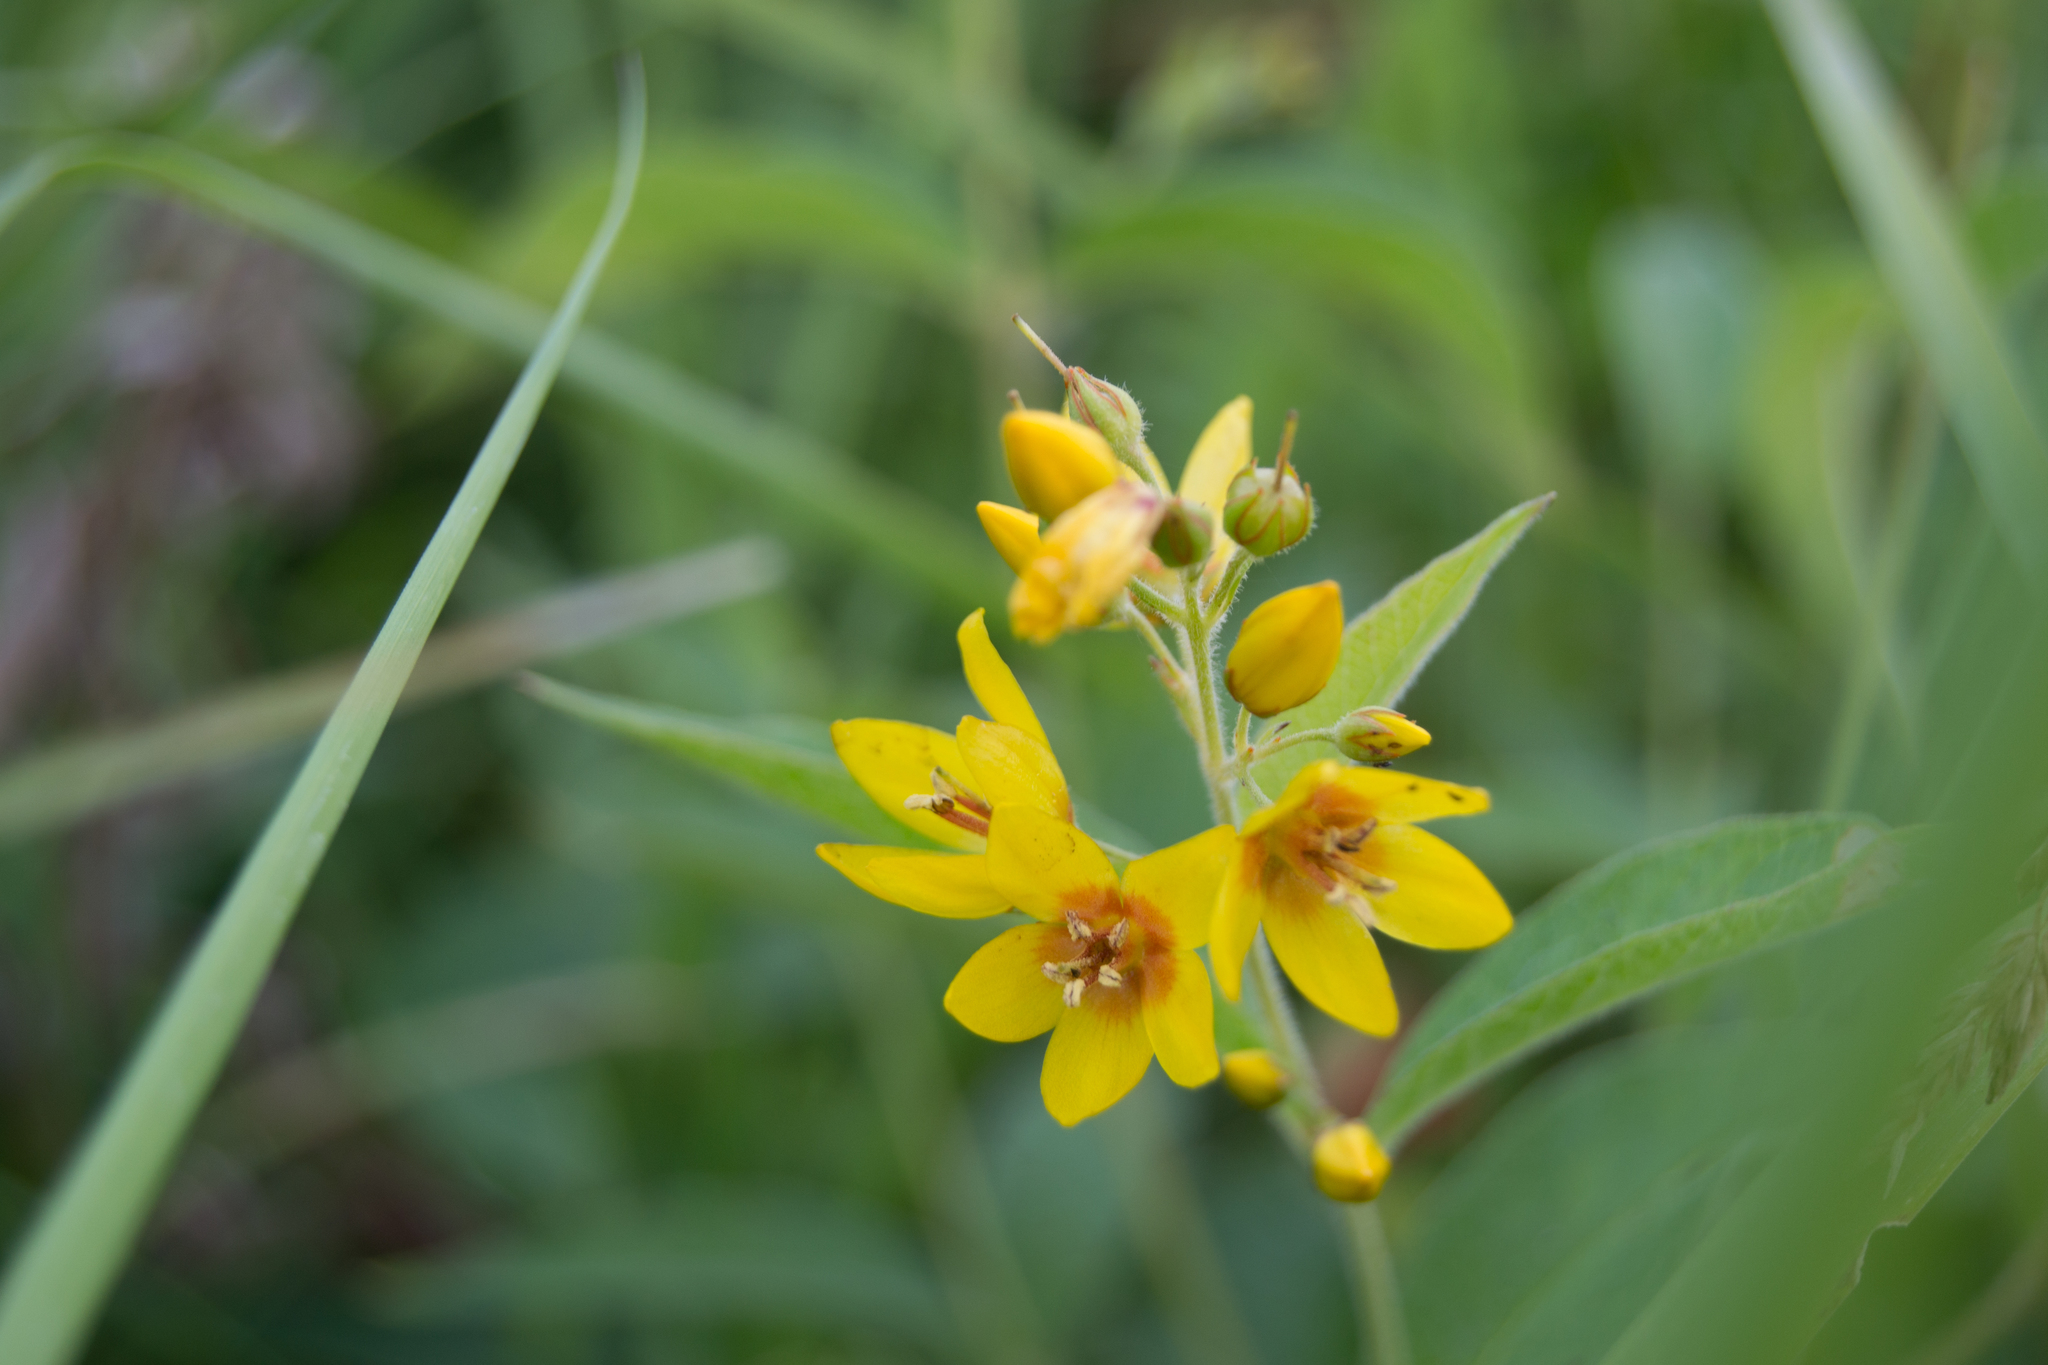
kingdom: Plantae
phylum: Tracheophyta
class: Magnoliopsida
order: Ericales
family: Primulaceae
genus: Lysimachia
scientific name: Lysimachia vulgaris
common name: Yellow loosestrife
